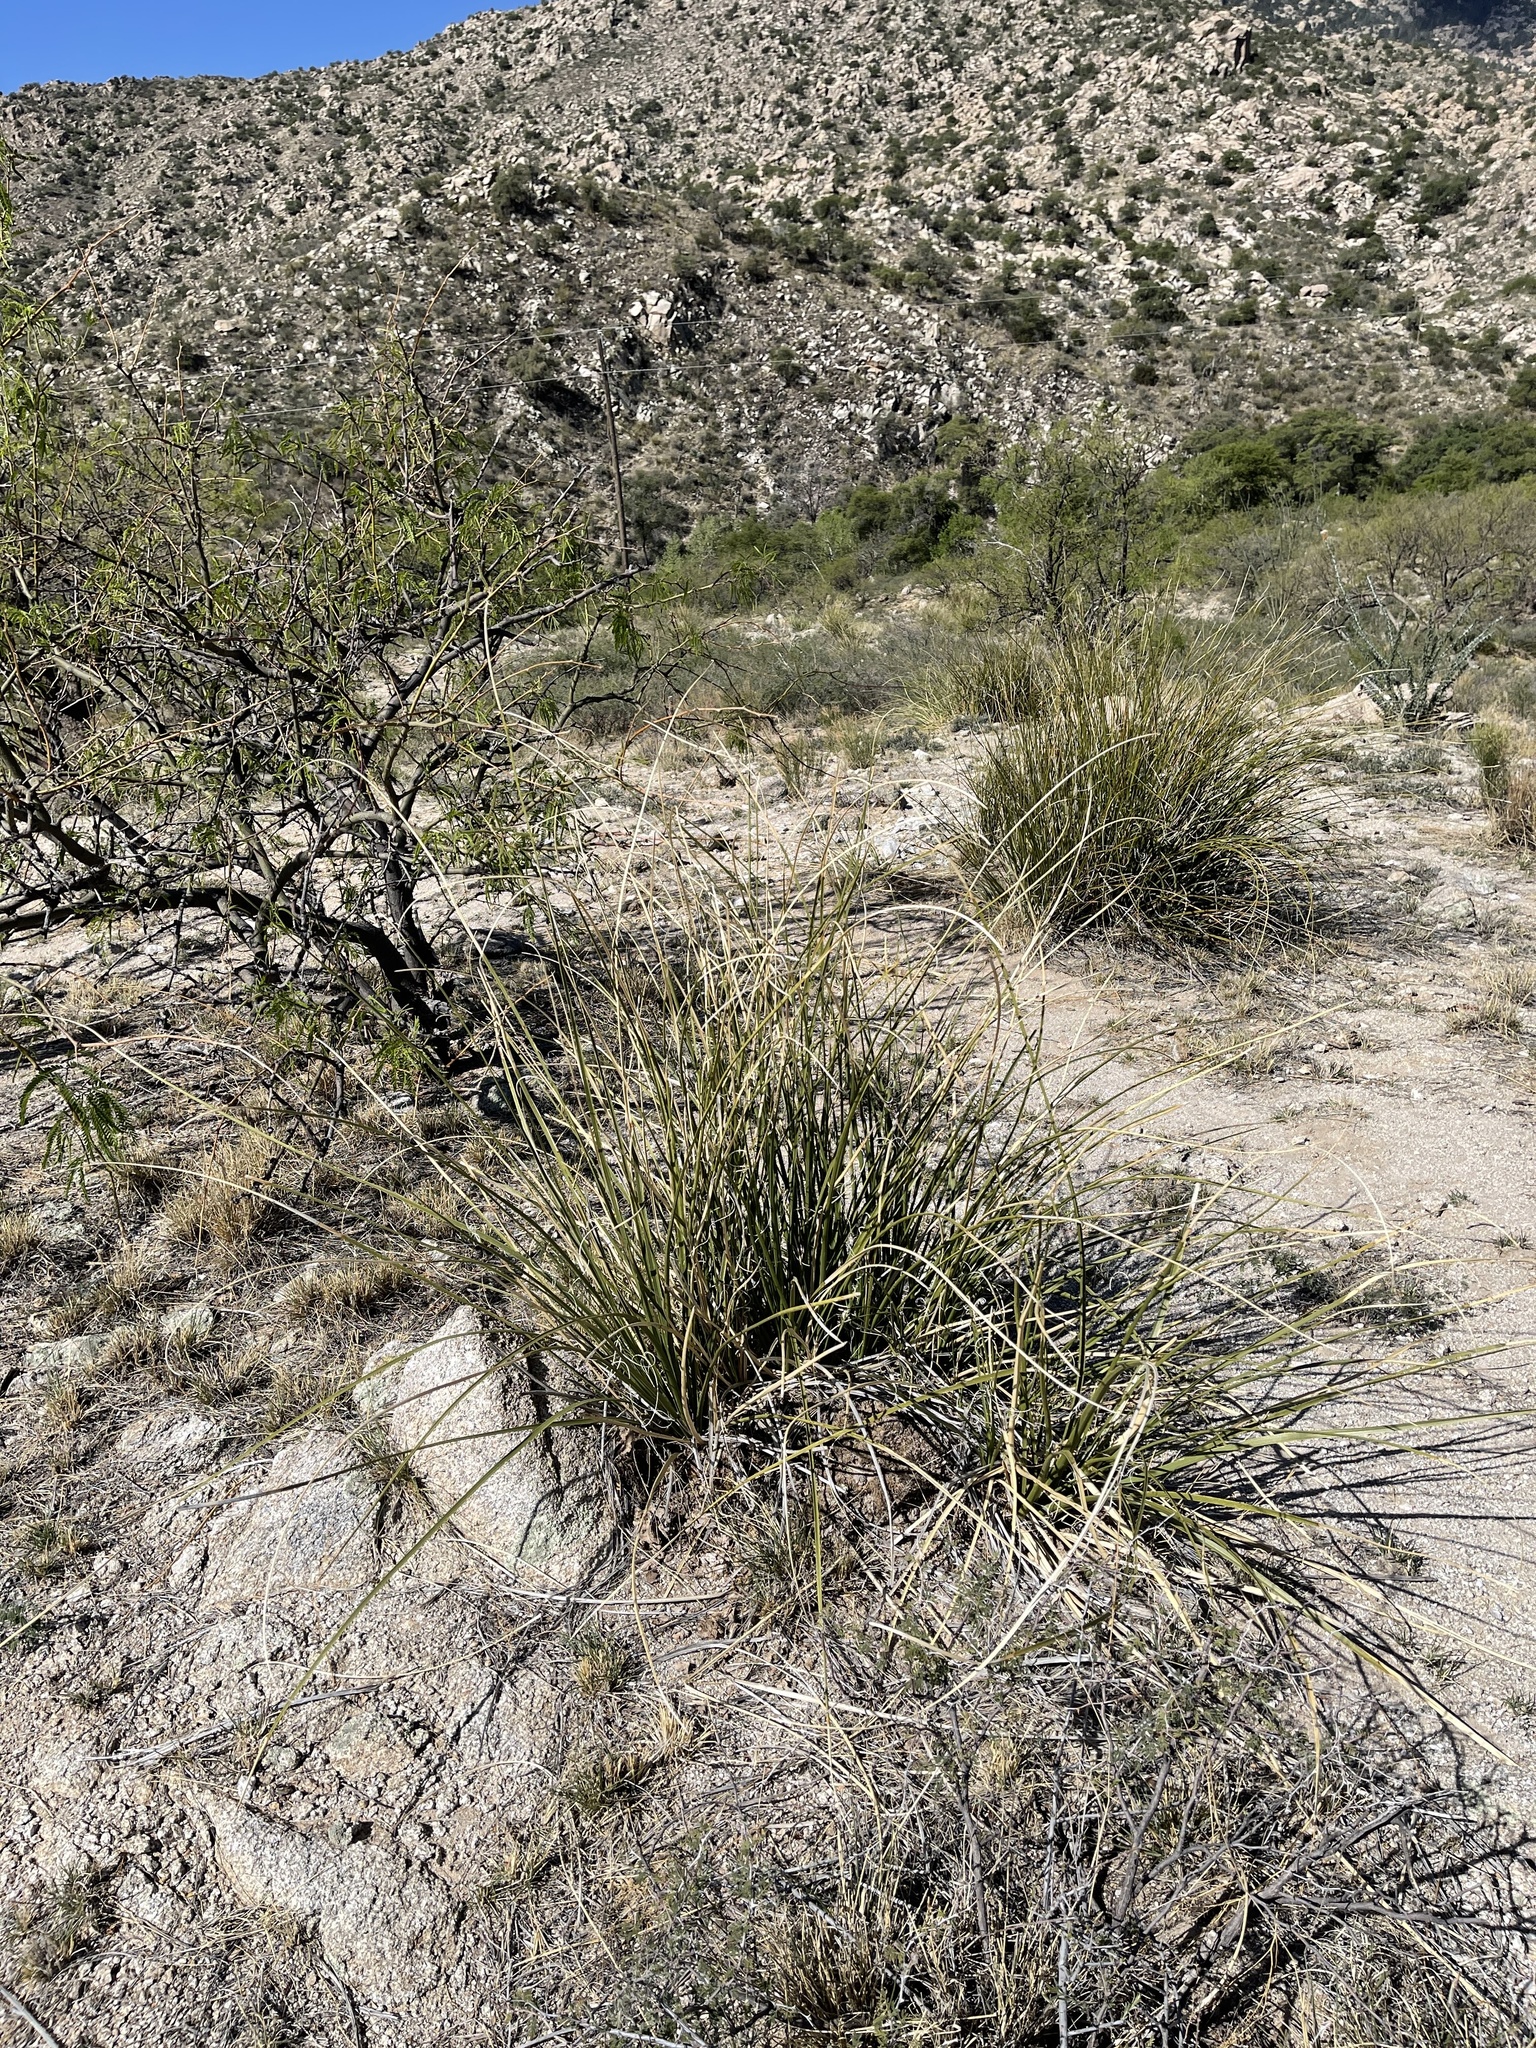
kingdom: Plantae
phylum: Tracheophyta
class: Liliopsida
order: Asparagales
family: Asparagaceae
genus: Nolina
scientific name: Nolina microcarpa
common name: Bear-grass
